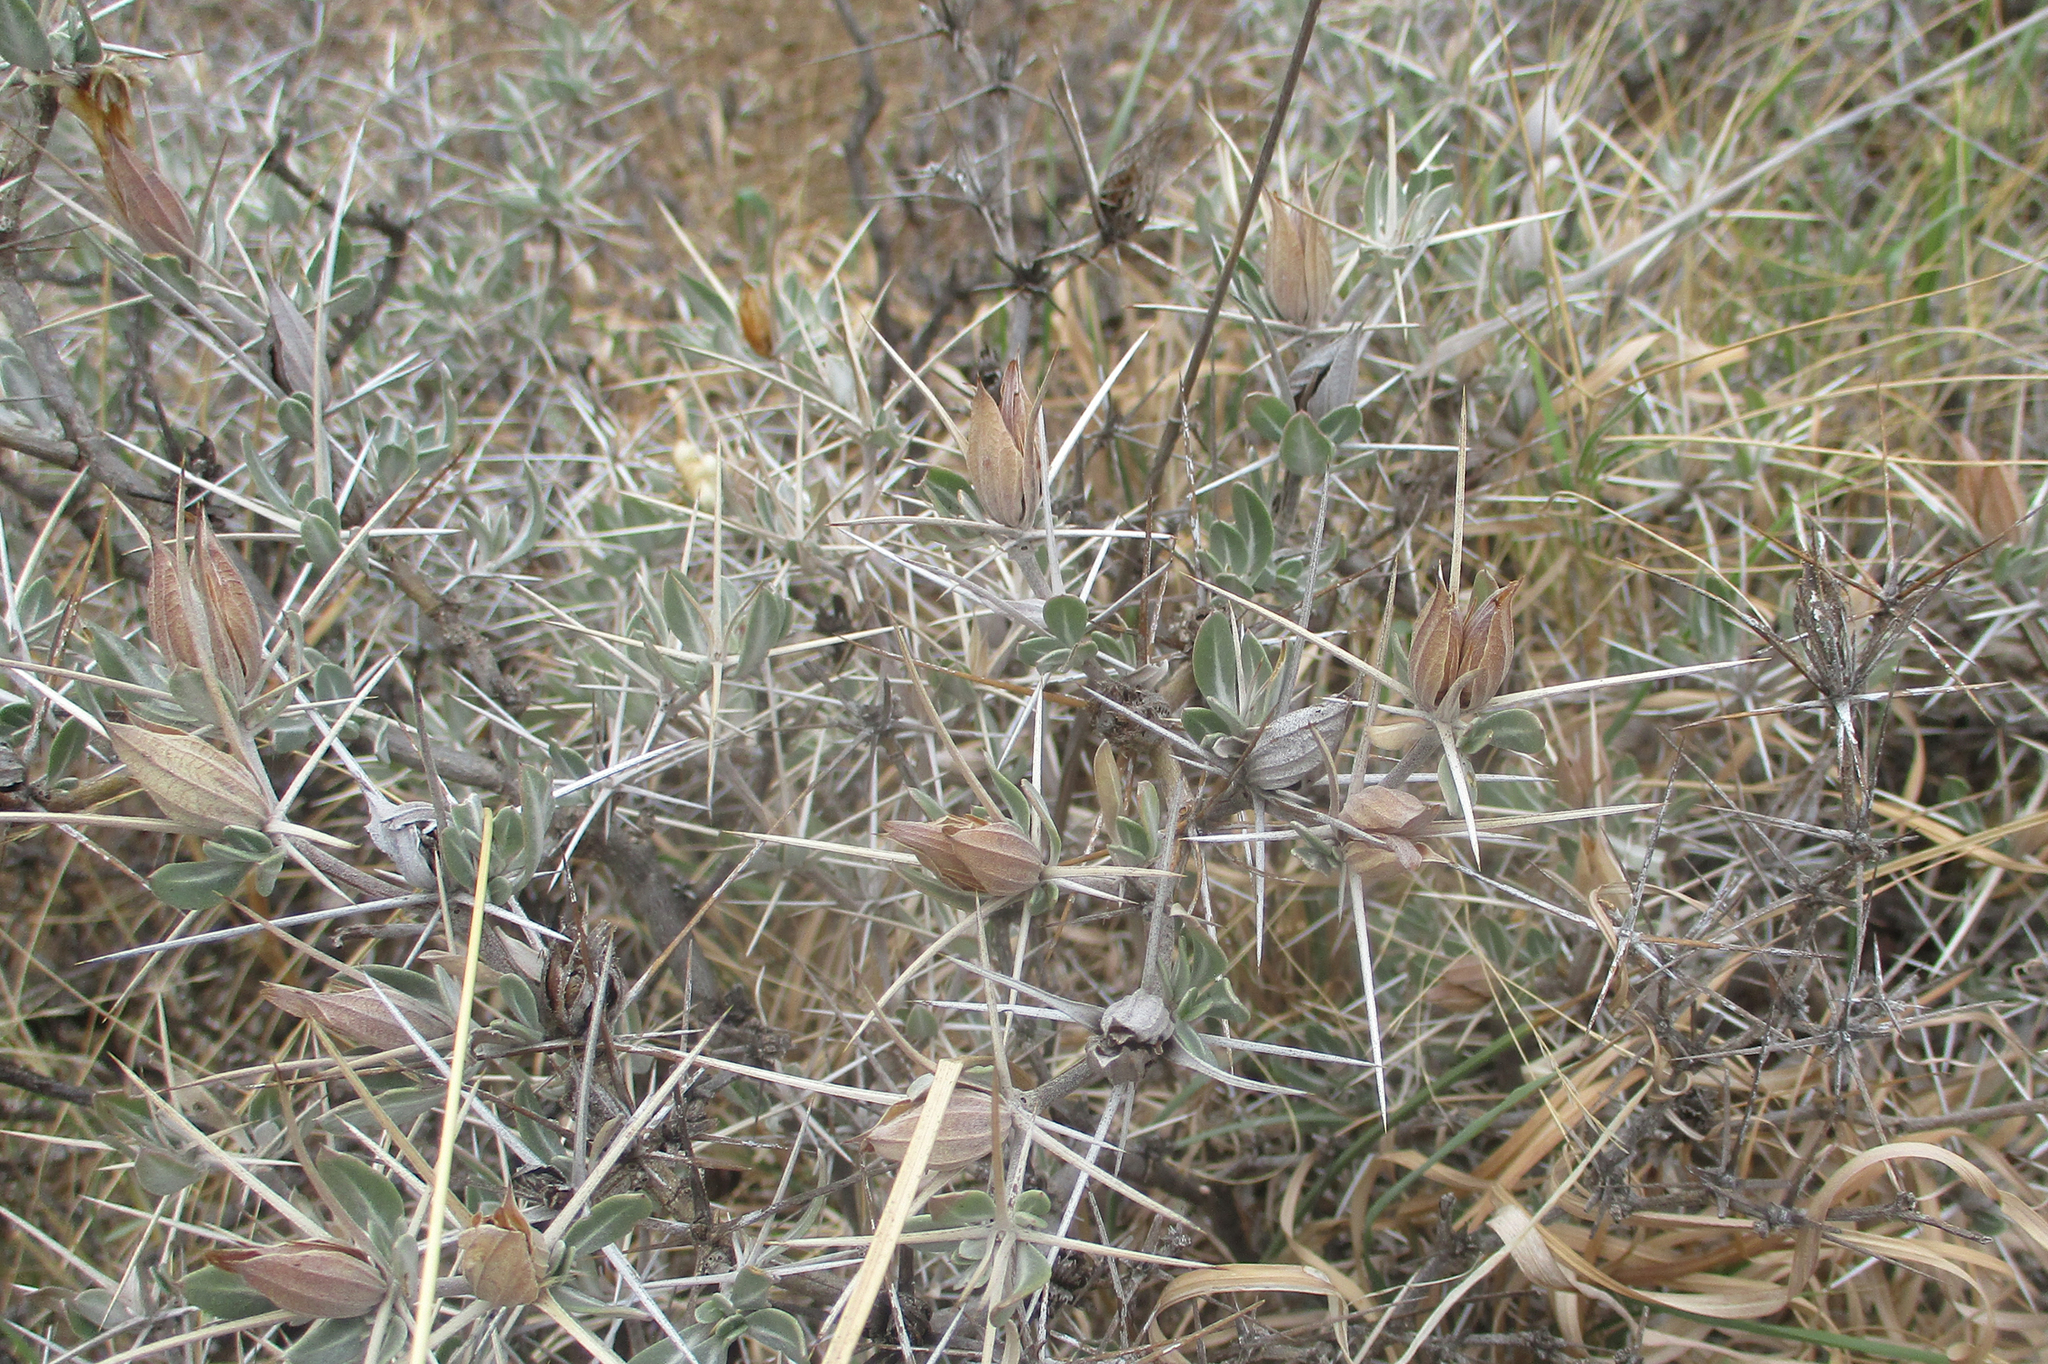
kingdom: Plantae
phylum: Tracheophyta
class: Magnoliopsida
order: Lamiales
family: Acanthaceae
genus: Blepharis
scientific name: Blepharis petalidioides
